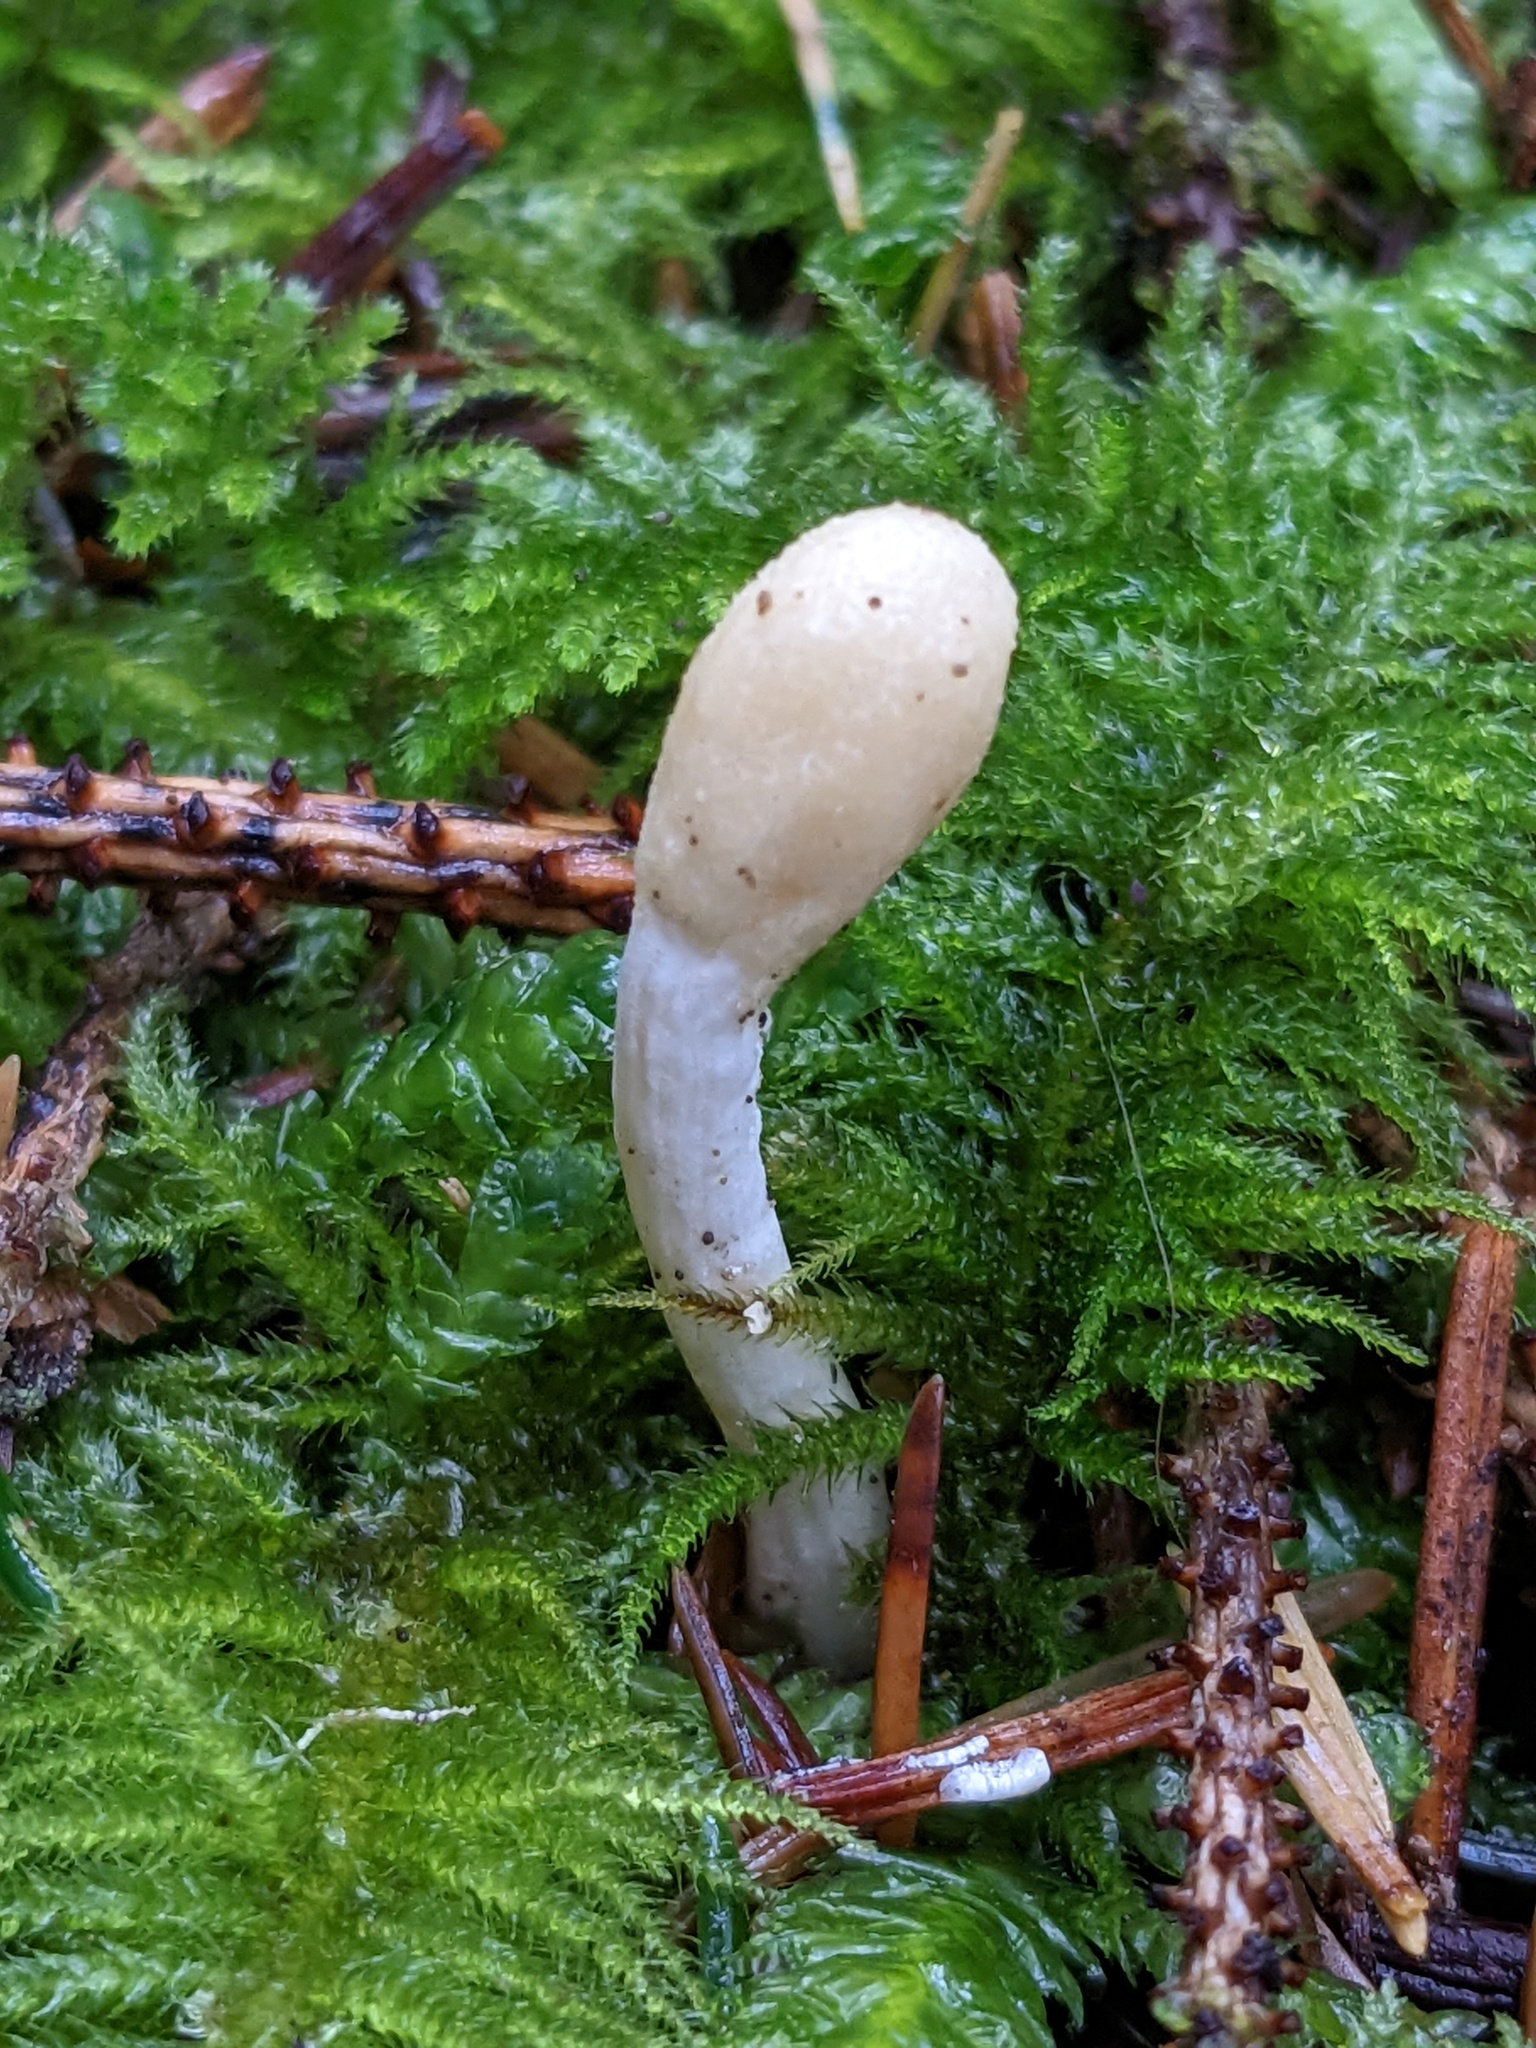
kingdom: Fungi
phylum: Ascomycota
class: Sordariomycetes
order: Hypocreales
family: Hypocreaceae
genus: Trichoderma
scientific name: Trichoderma leucopus
